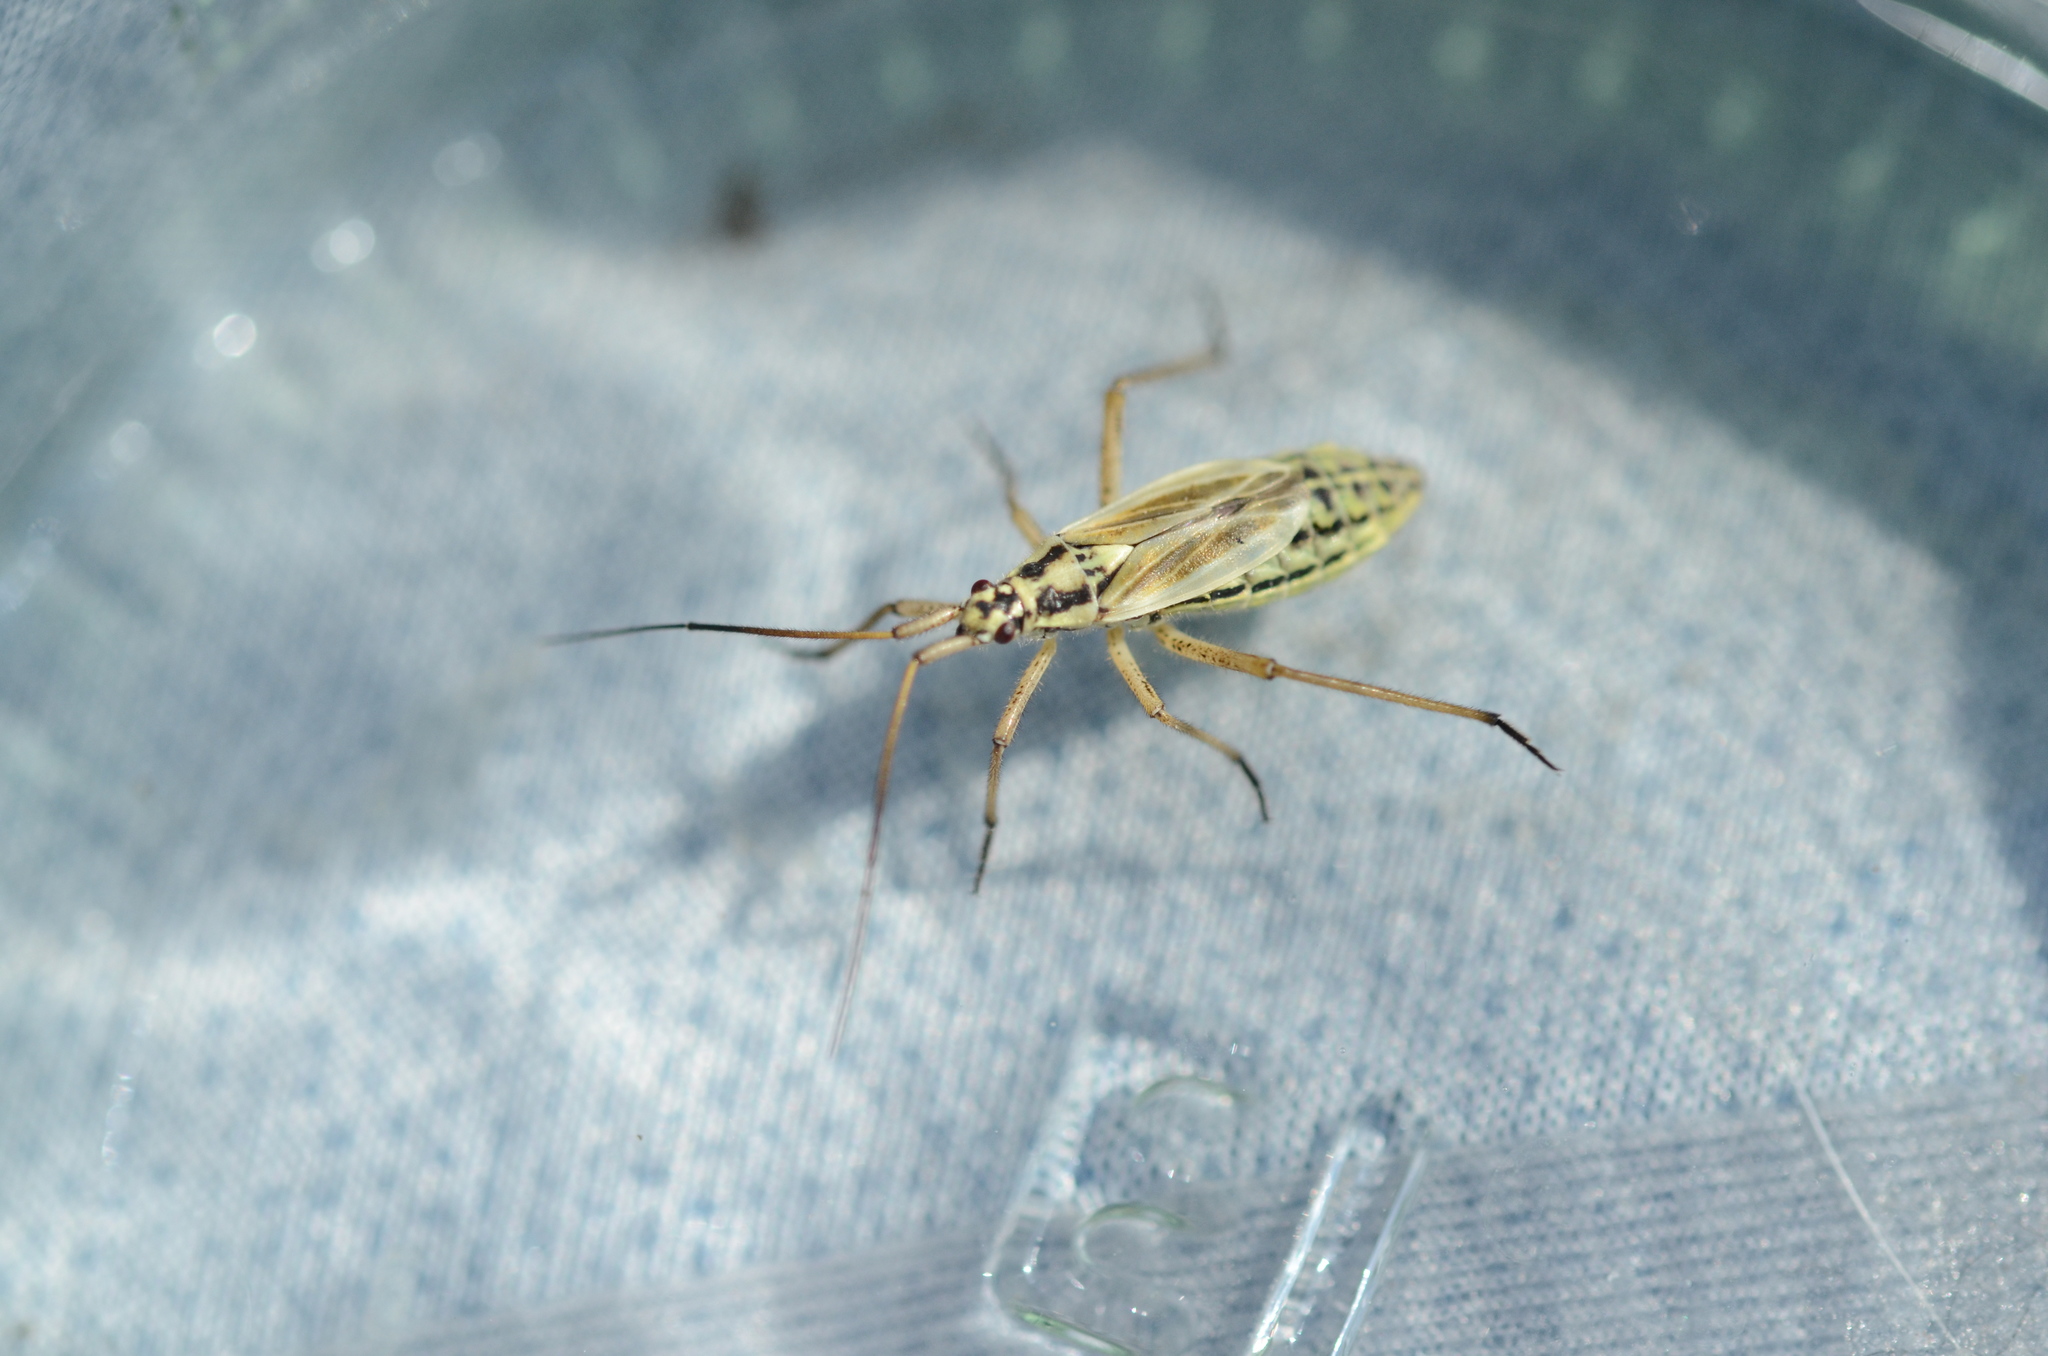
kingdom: Animalia
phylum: Arthropoda
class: Insecta
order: Hemiptera
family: Miridae
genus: Leptopterna
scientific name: Leptopterna dolabrata
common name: Meadow plant bug
